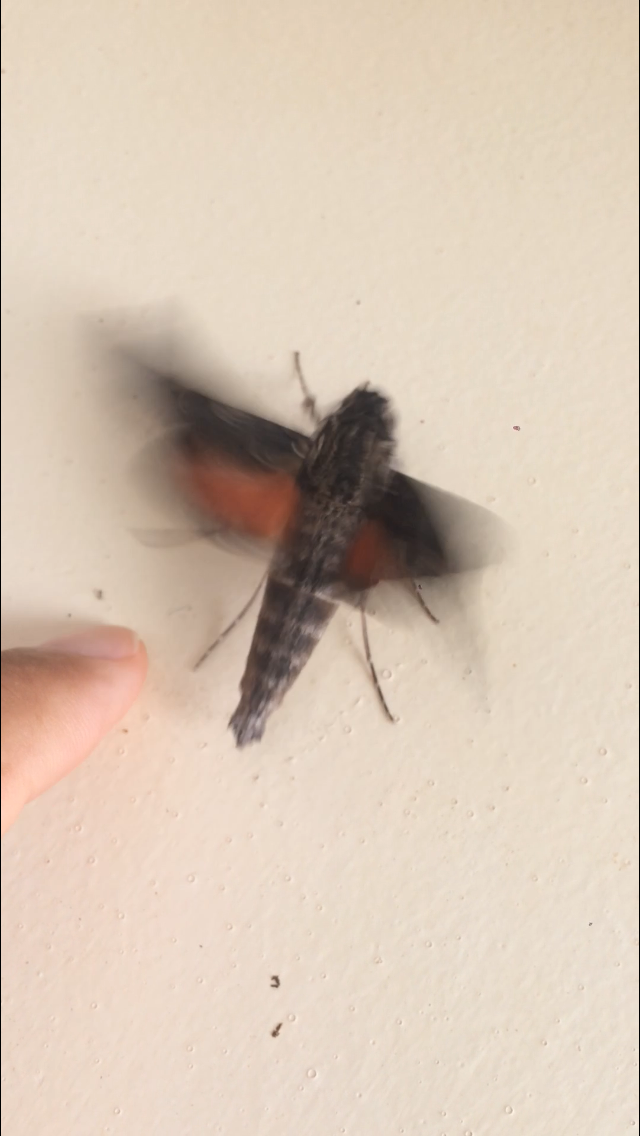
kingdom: Animalia
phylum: Arthropoda
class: Insecta
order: Lepidoptera
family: Sphingidae
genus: Erinnyis
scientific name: Erinnyis oenotrus
